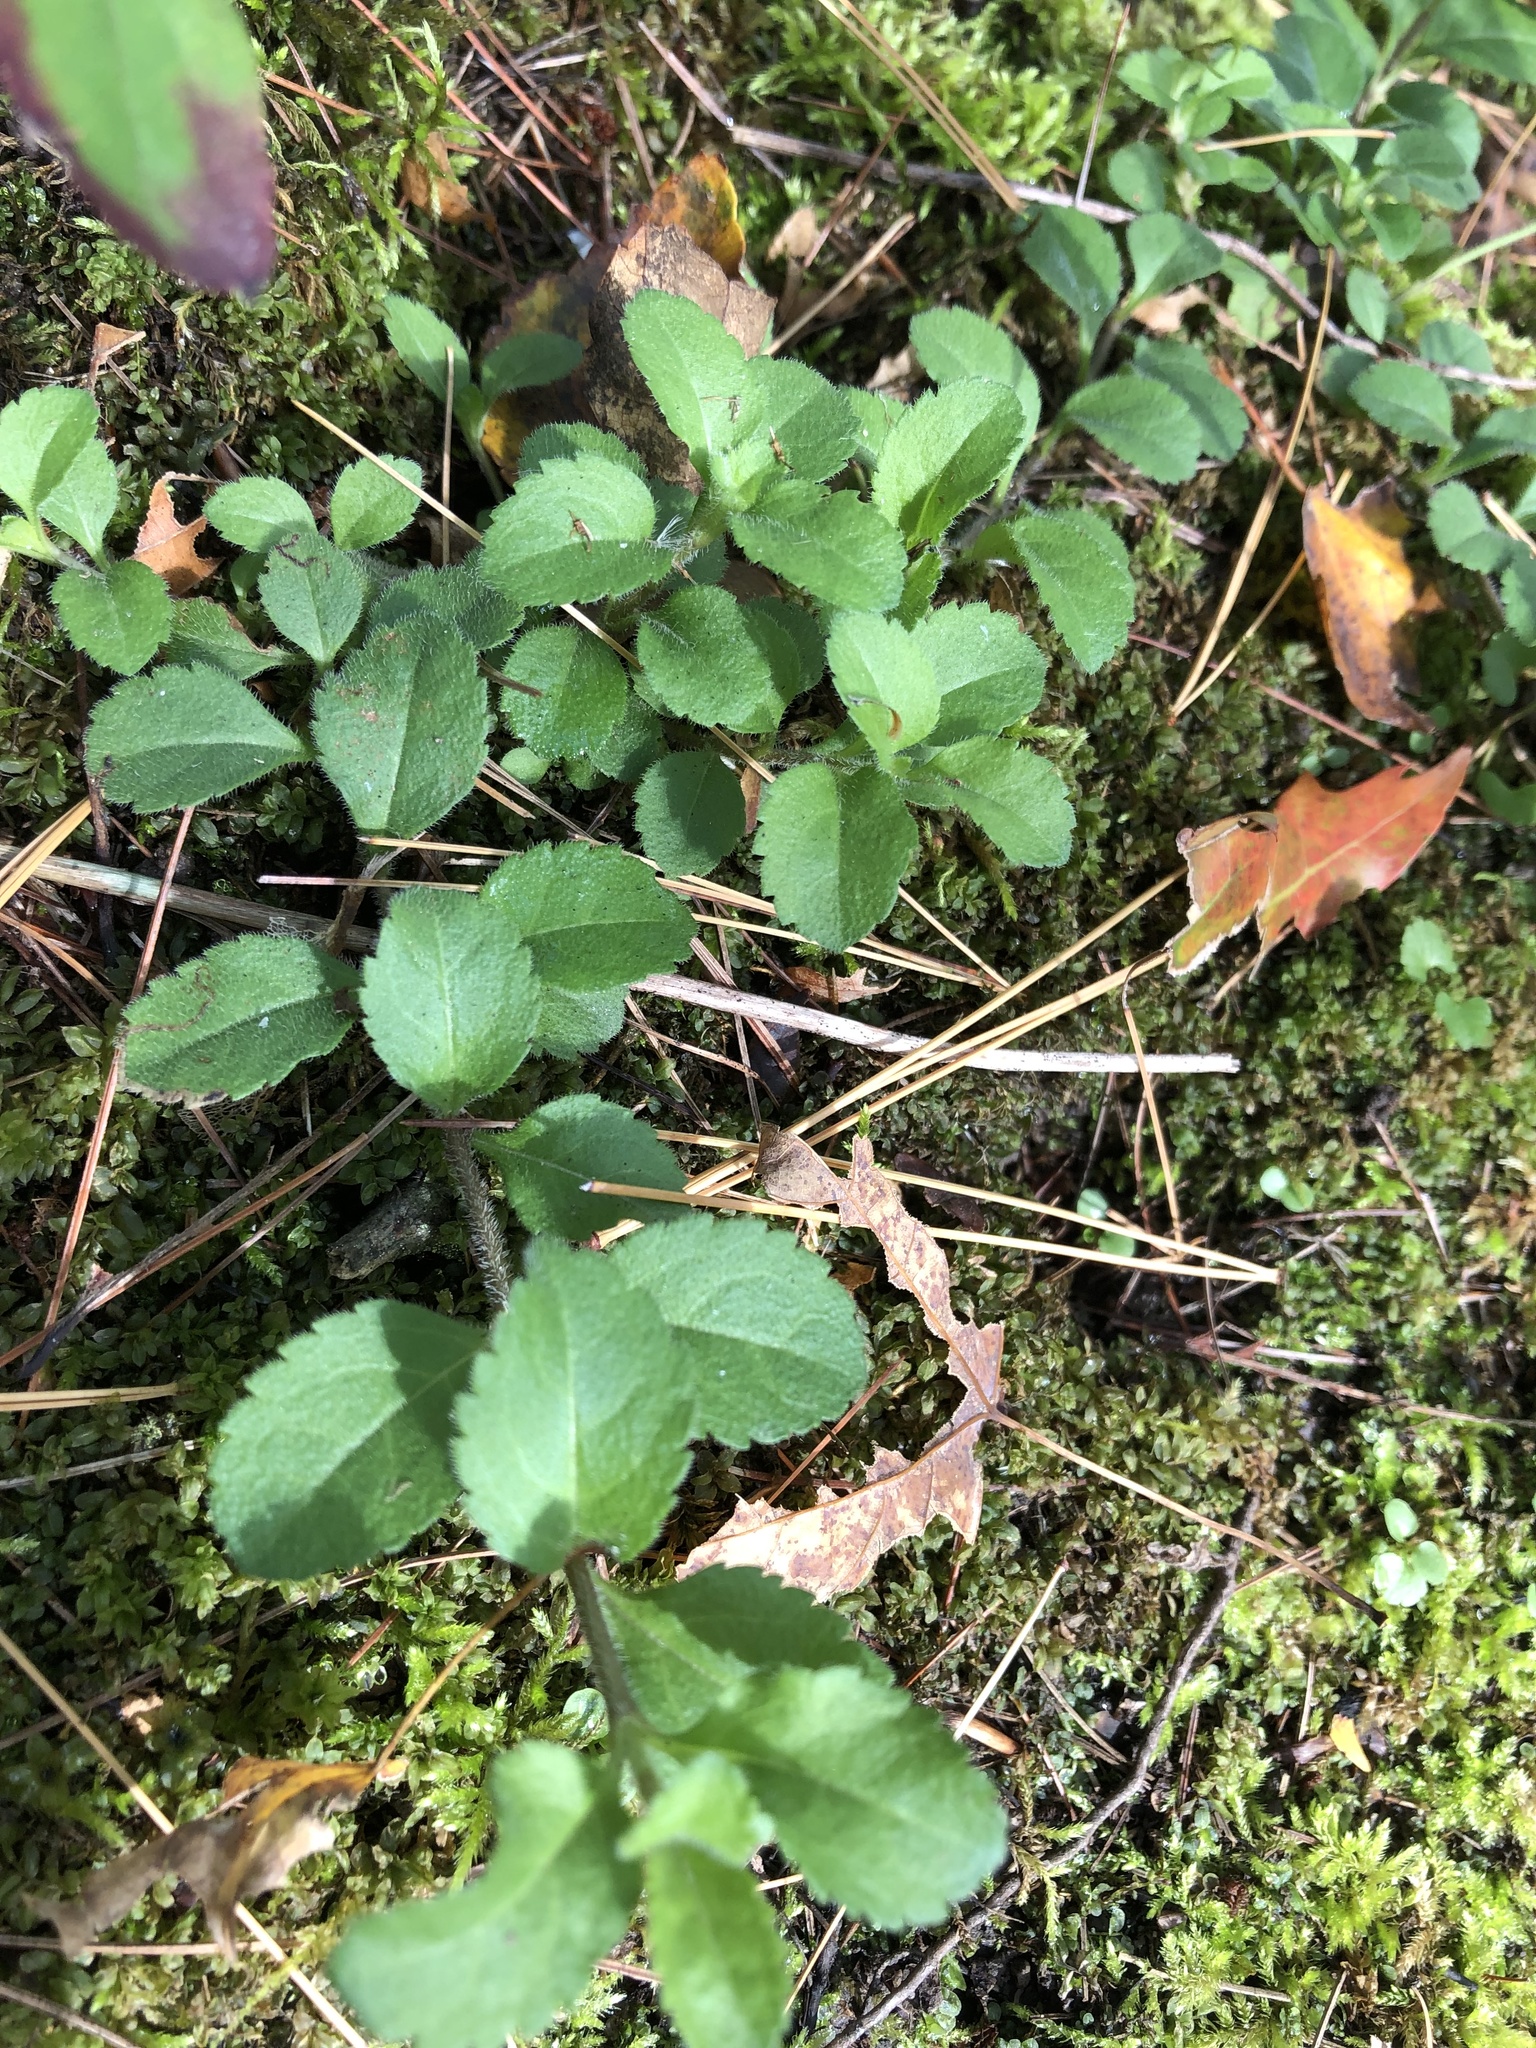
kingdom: Plantae
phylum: Tracheophyta
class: Magnoliopsida
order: Lamiales
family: Plantaginaceae
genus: Veronica
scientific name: Veronica officinalis
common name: Common speedwell
